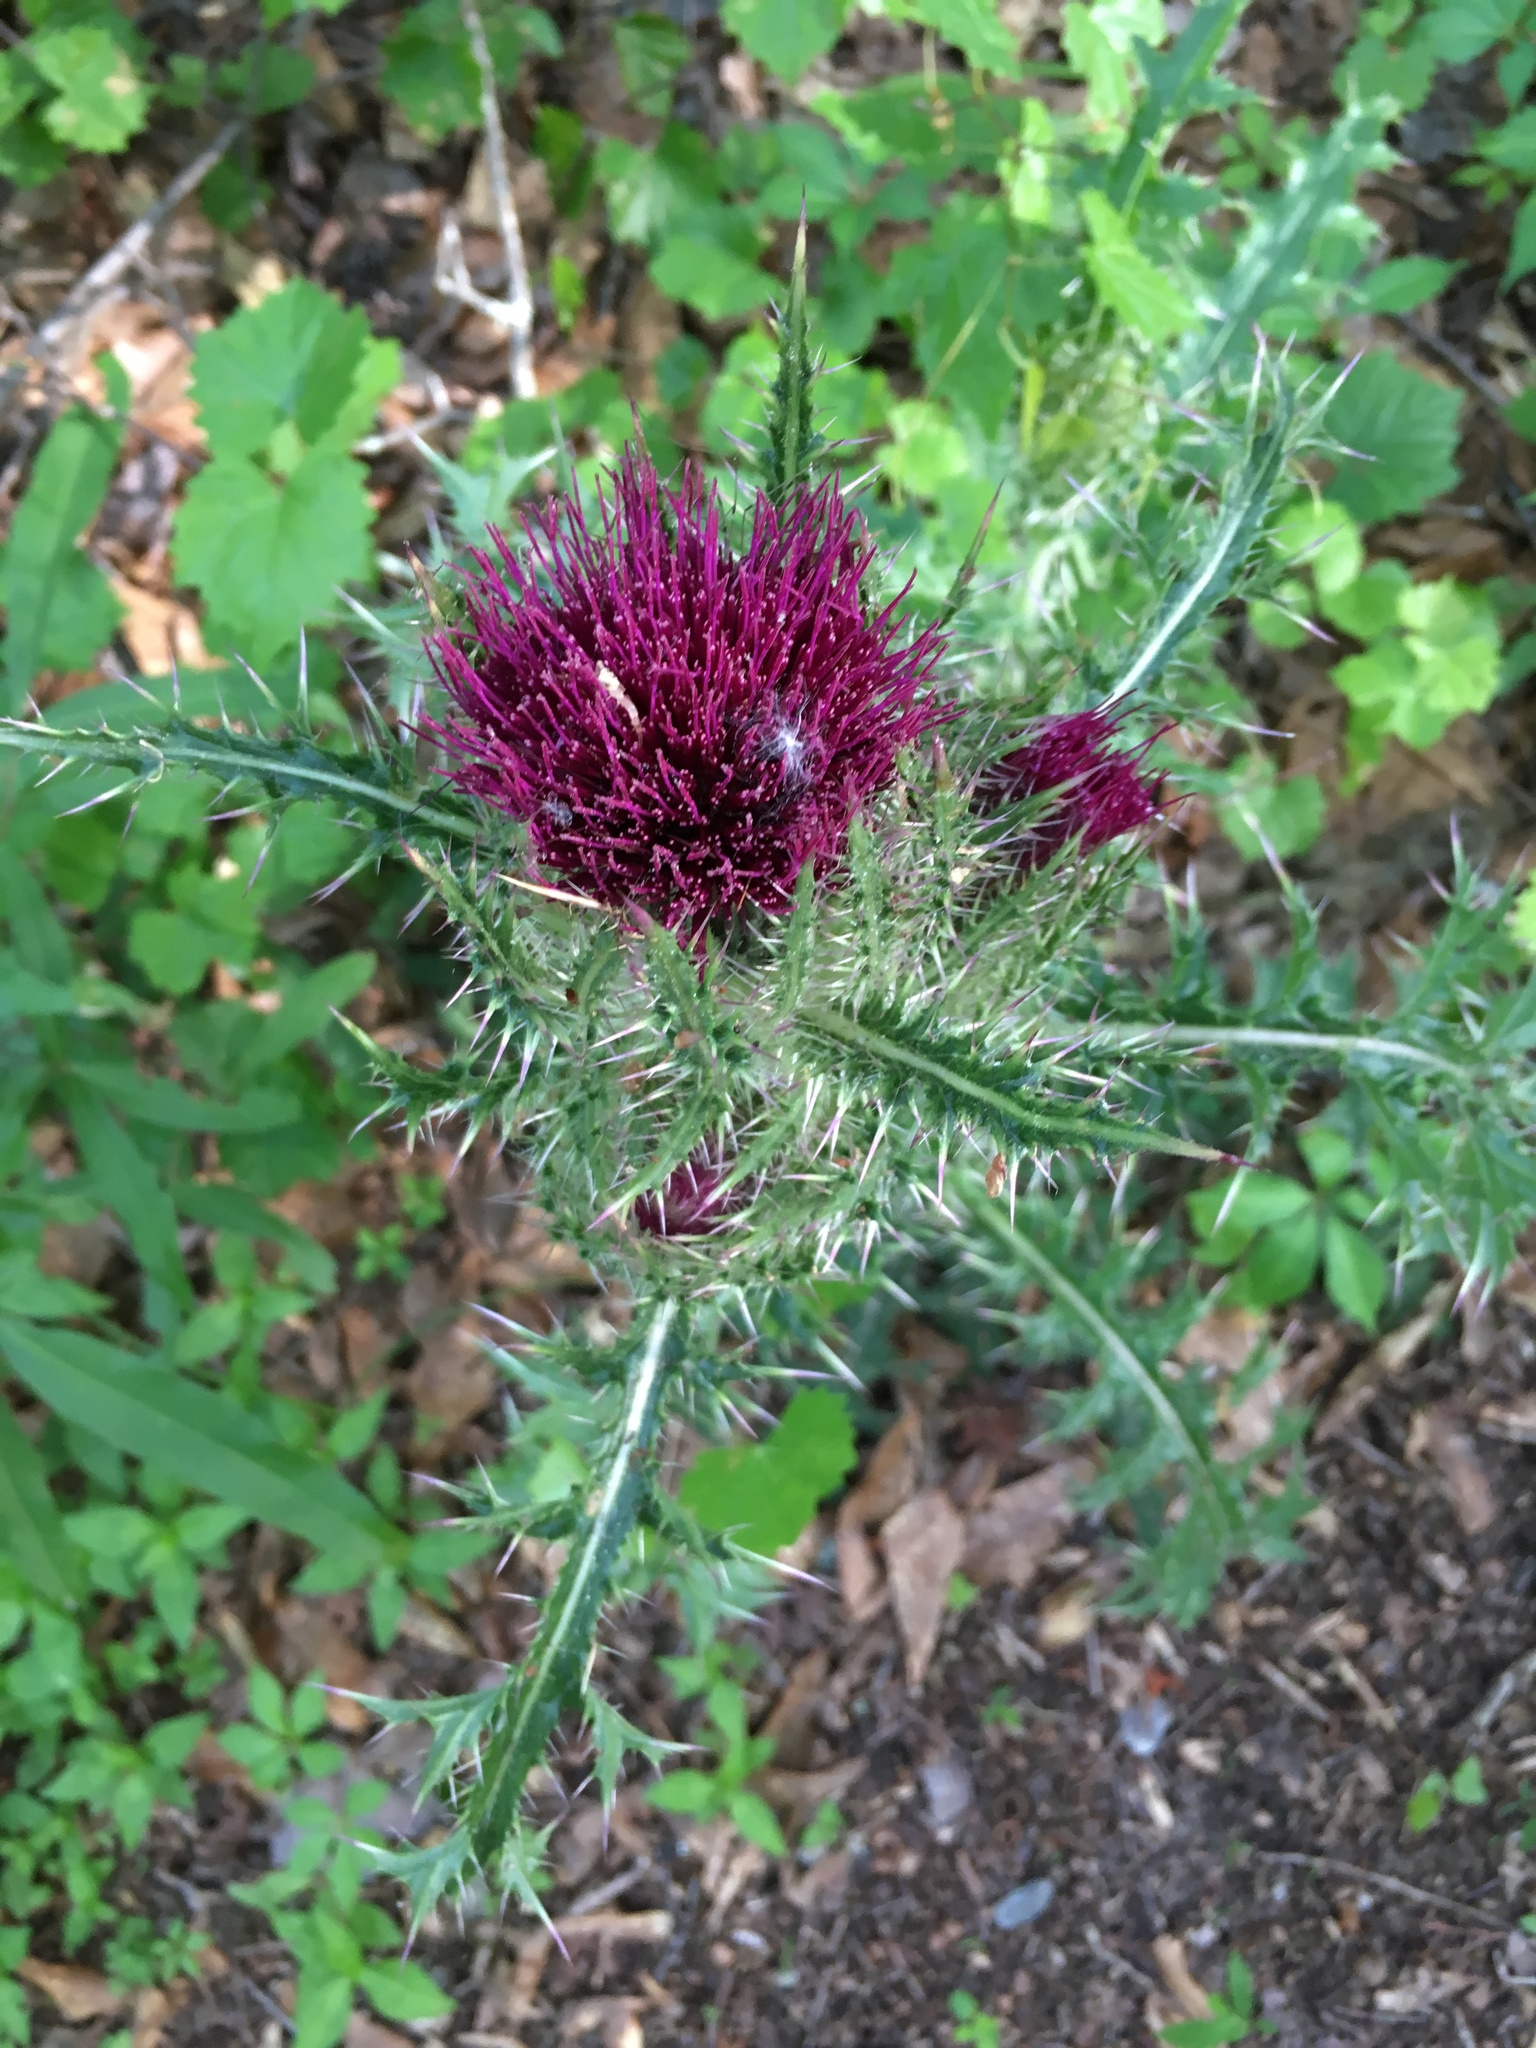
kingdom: Plantae
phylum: Tracheophyta
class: Magnoliopsida
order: Asterales
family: Asteraceae
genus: Cirsium
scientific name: Cirsium horridulum
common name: Bristly thistle
